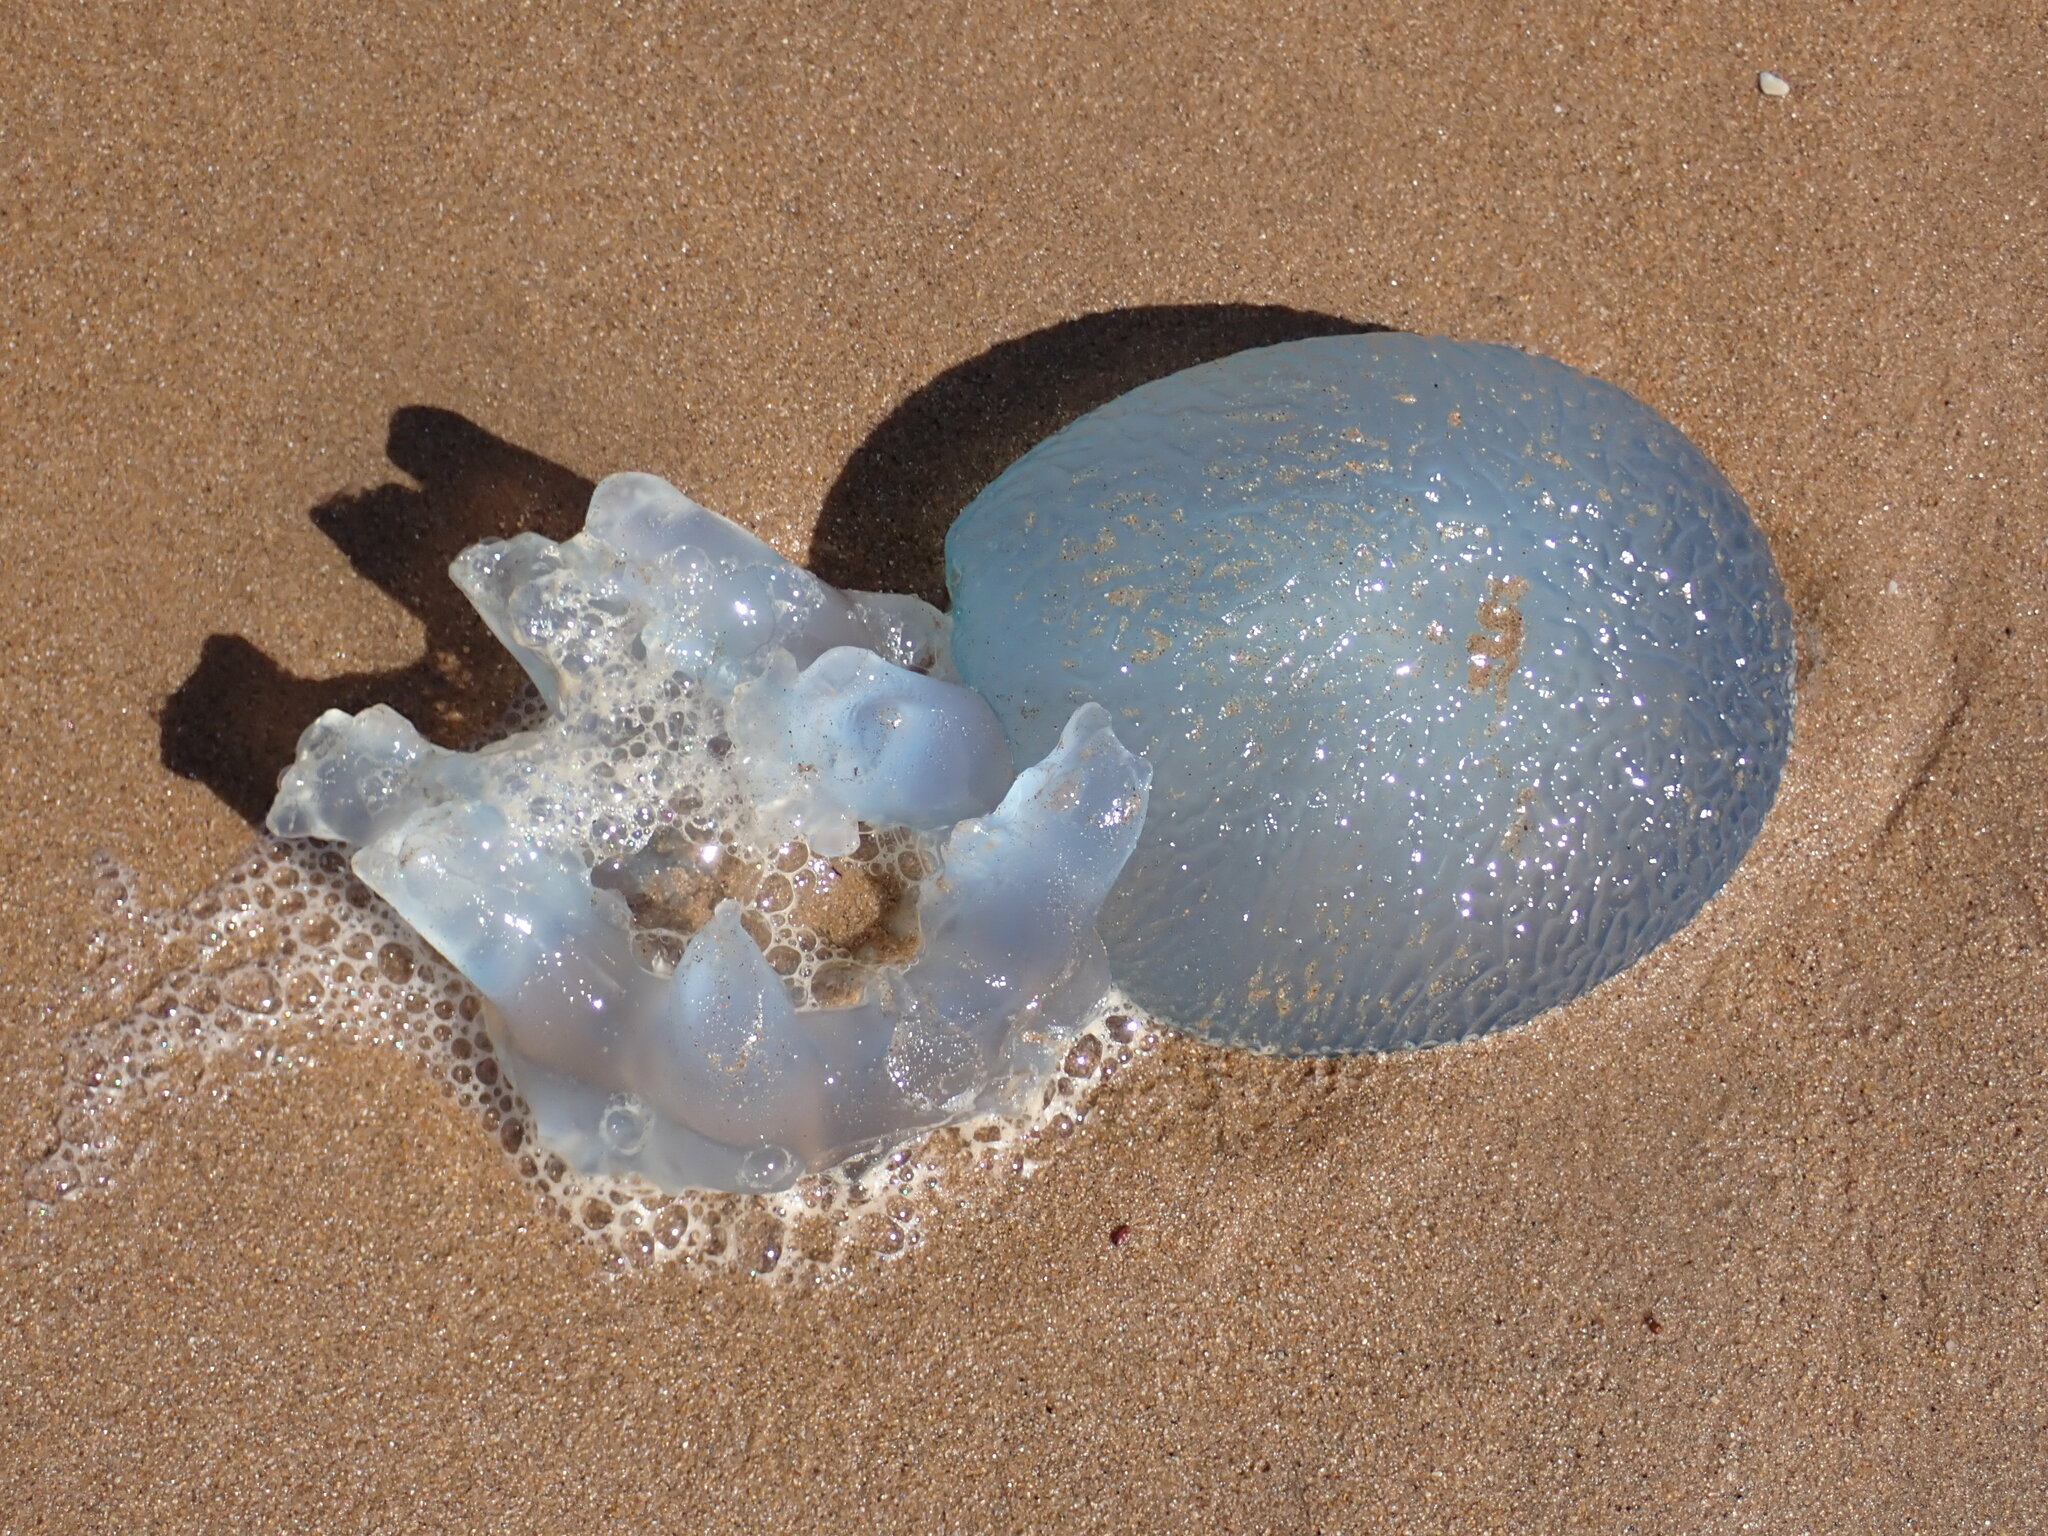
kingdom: Animalia
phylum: Cnidaria
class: Scyphozoa
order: Rhizostomeae
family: Catostylidae
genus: Catostylus
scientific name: Catostylus mosaicus
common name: Blue blubber
